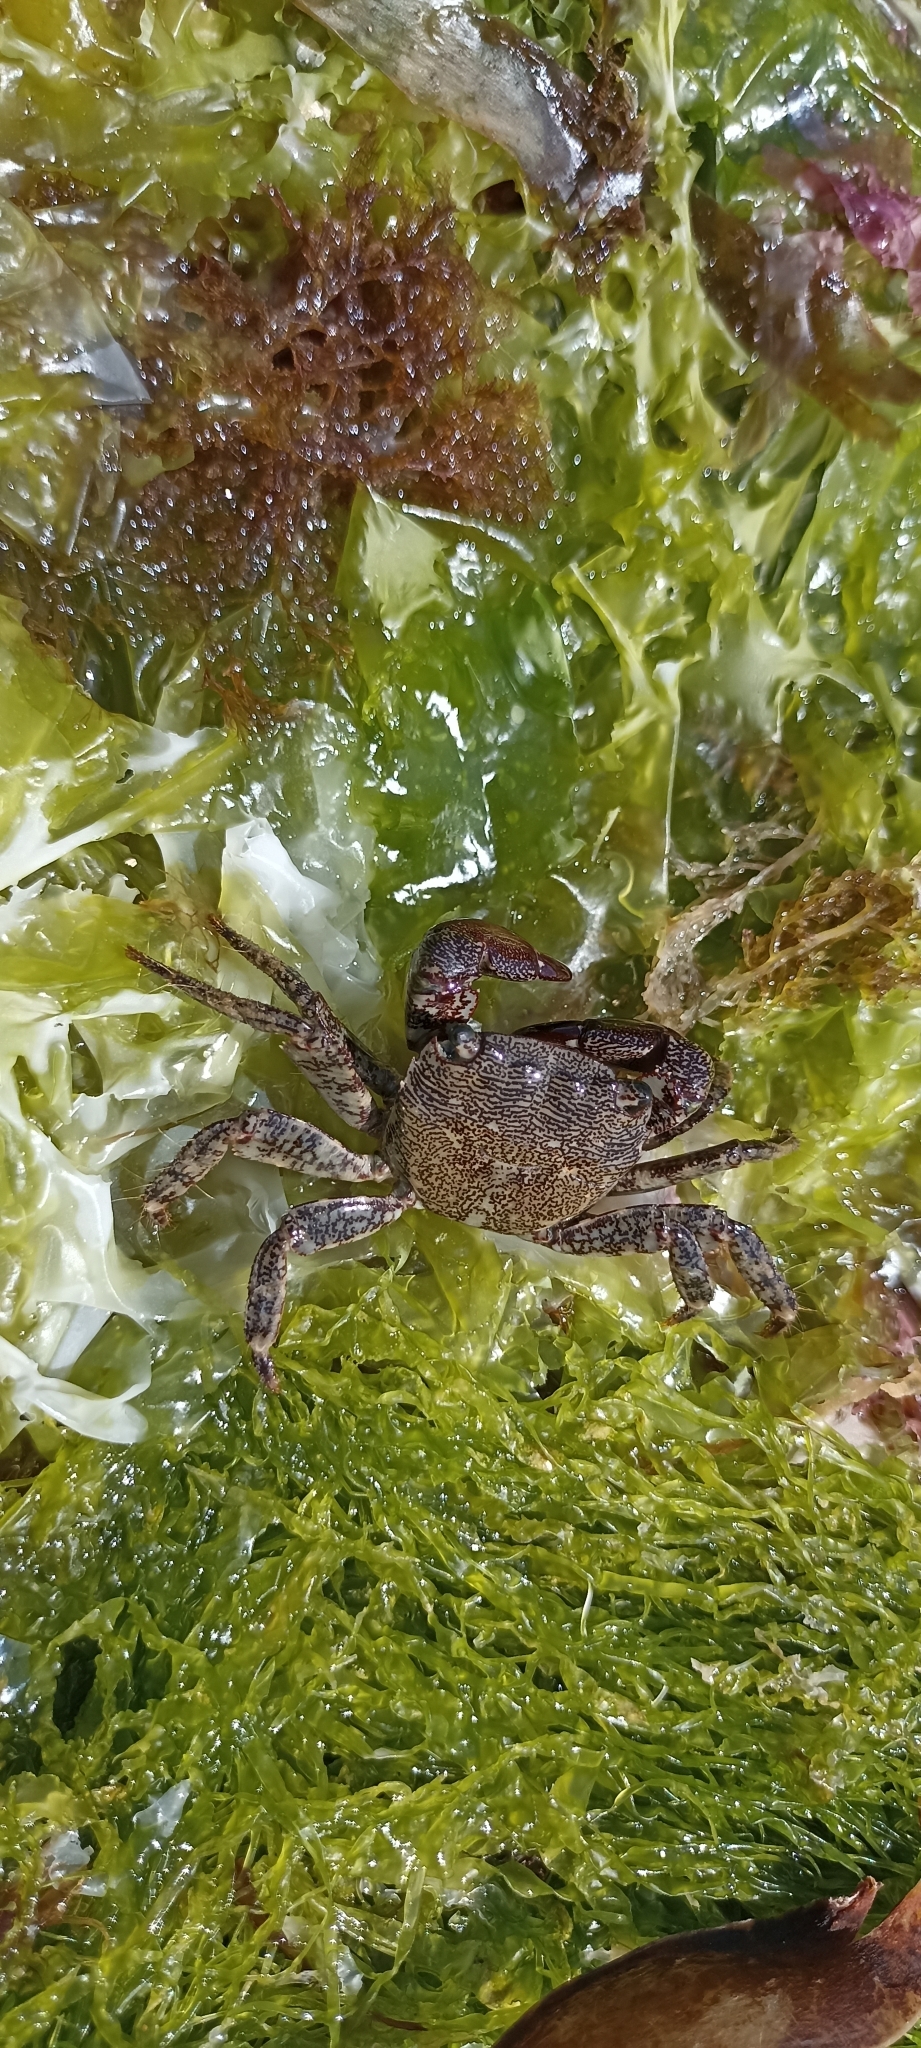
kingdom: Animalia
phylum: Arthropoda
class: Malacostraca
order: Decapoda
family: Grapsidae
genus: Pachygrapsus
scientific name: Pachygrapsus marmoratus
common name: Marbled rock crab
